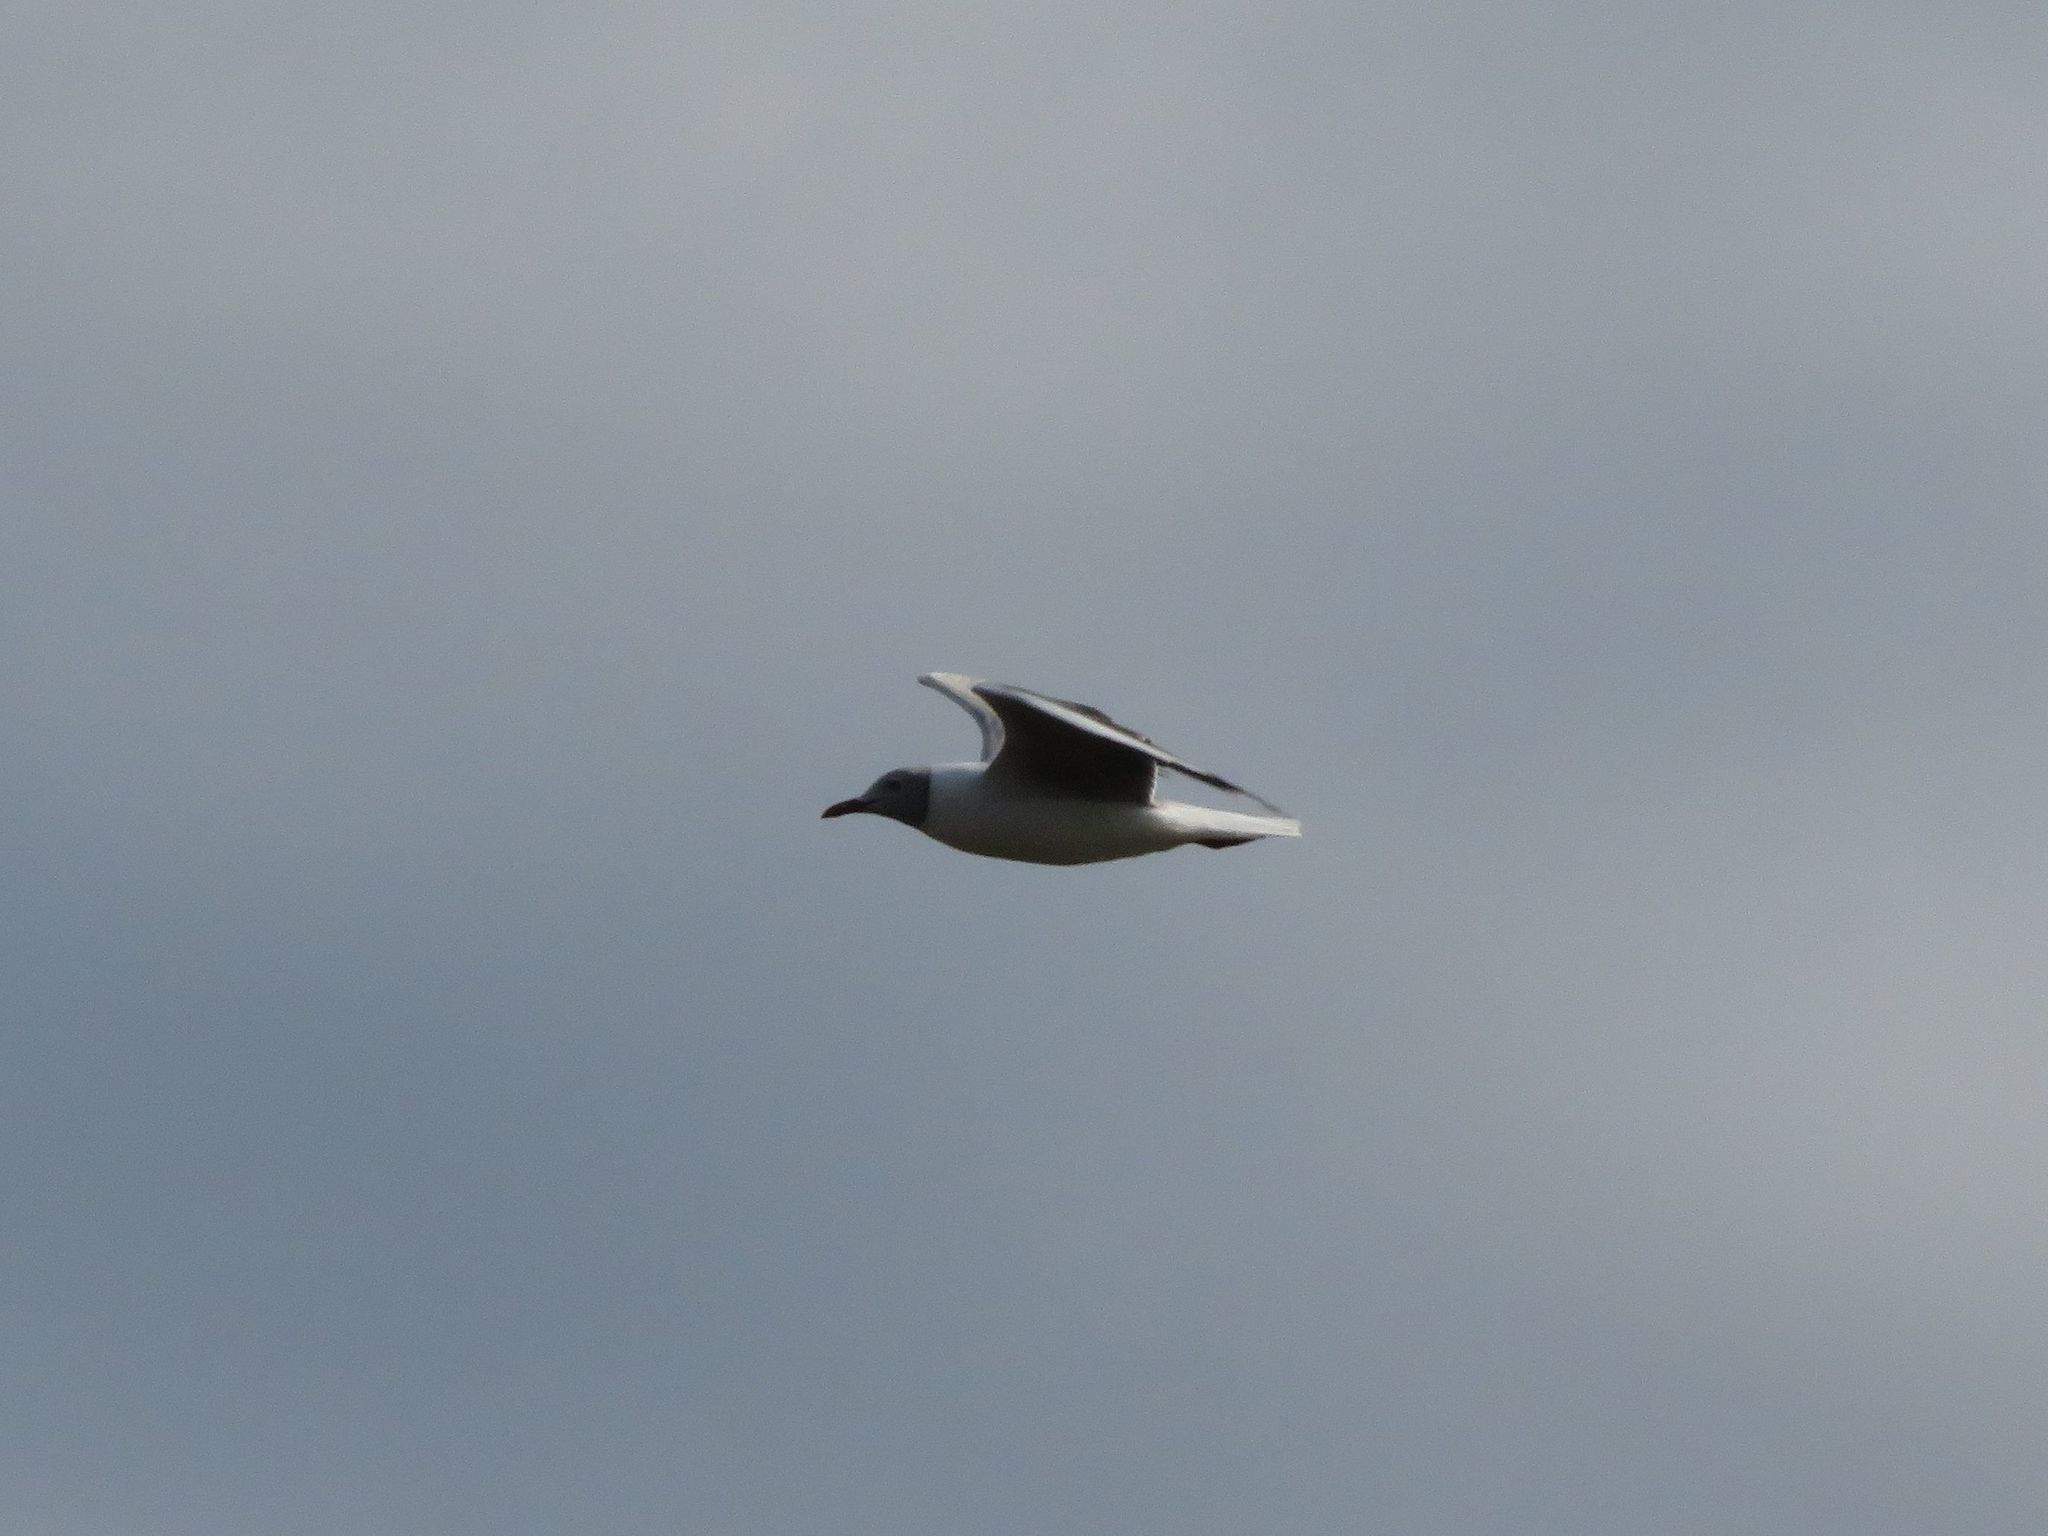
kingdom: Animalia
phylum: Chordata
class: Aves
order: Charadriiformes
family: Laridae
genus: Chroicocephalus
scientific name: Chroicocephalus cirrocephalus
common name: Grey-headed gull
